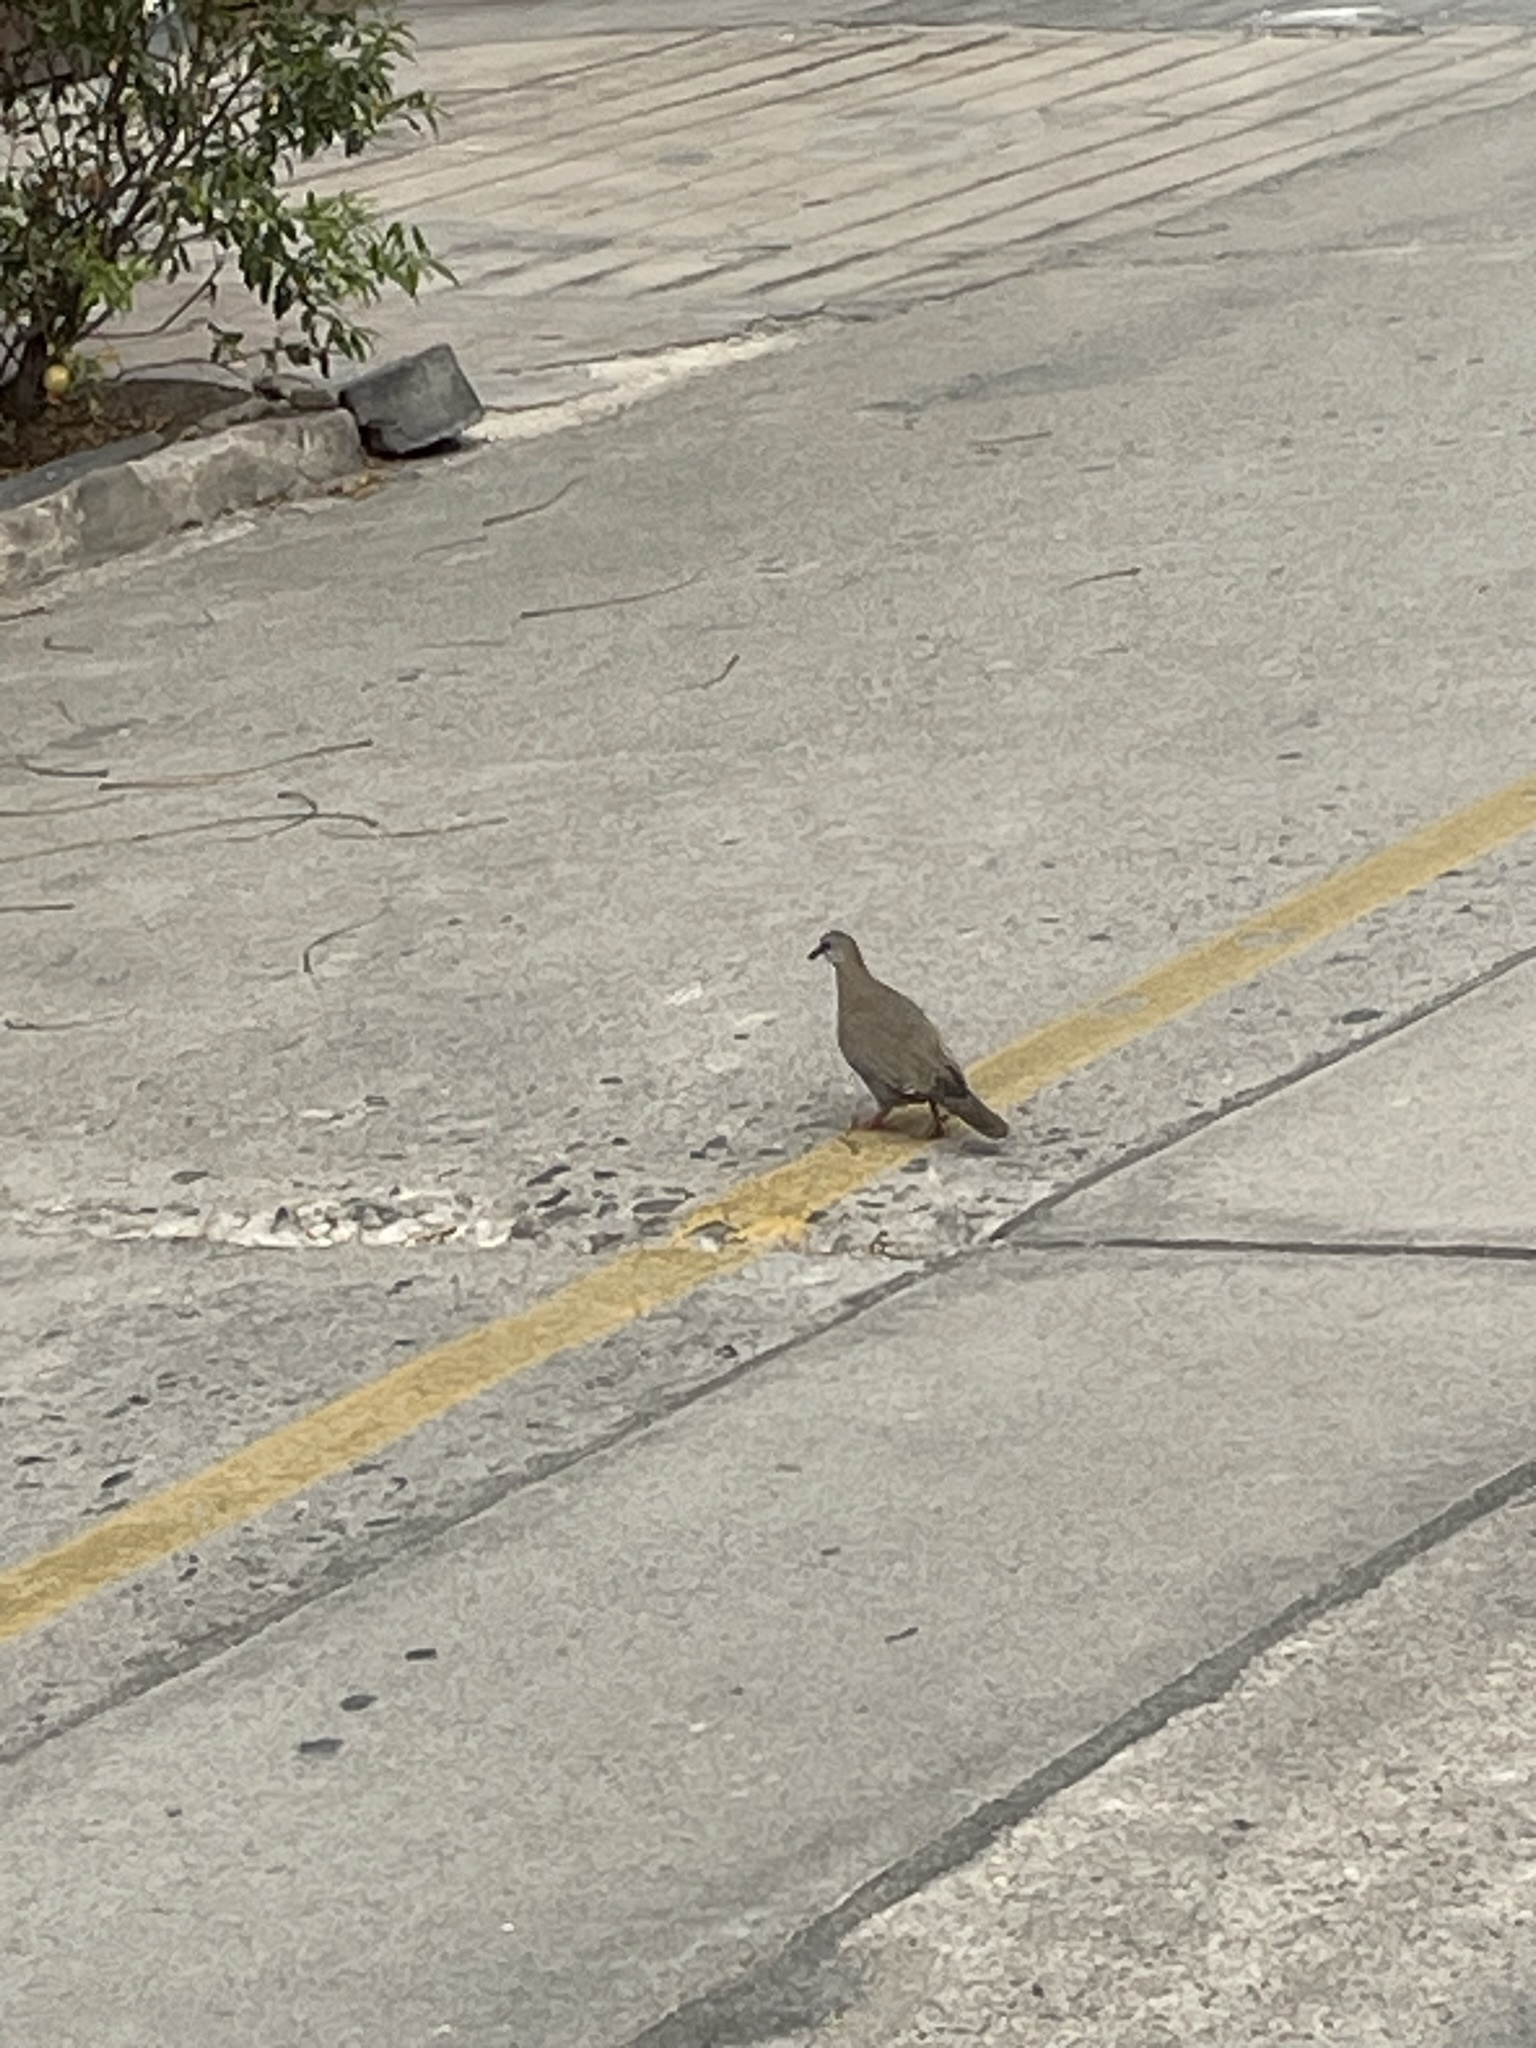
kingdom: Animalia
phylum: Chordata
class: Aves
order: Columbiformes
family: Columbidae
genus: Zenaida
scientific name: Zenaida meloda
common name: West peruvian dove
